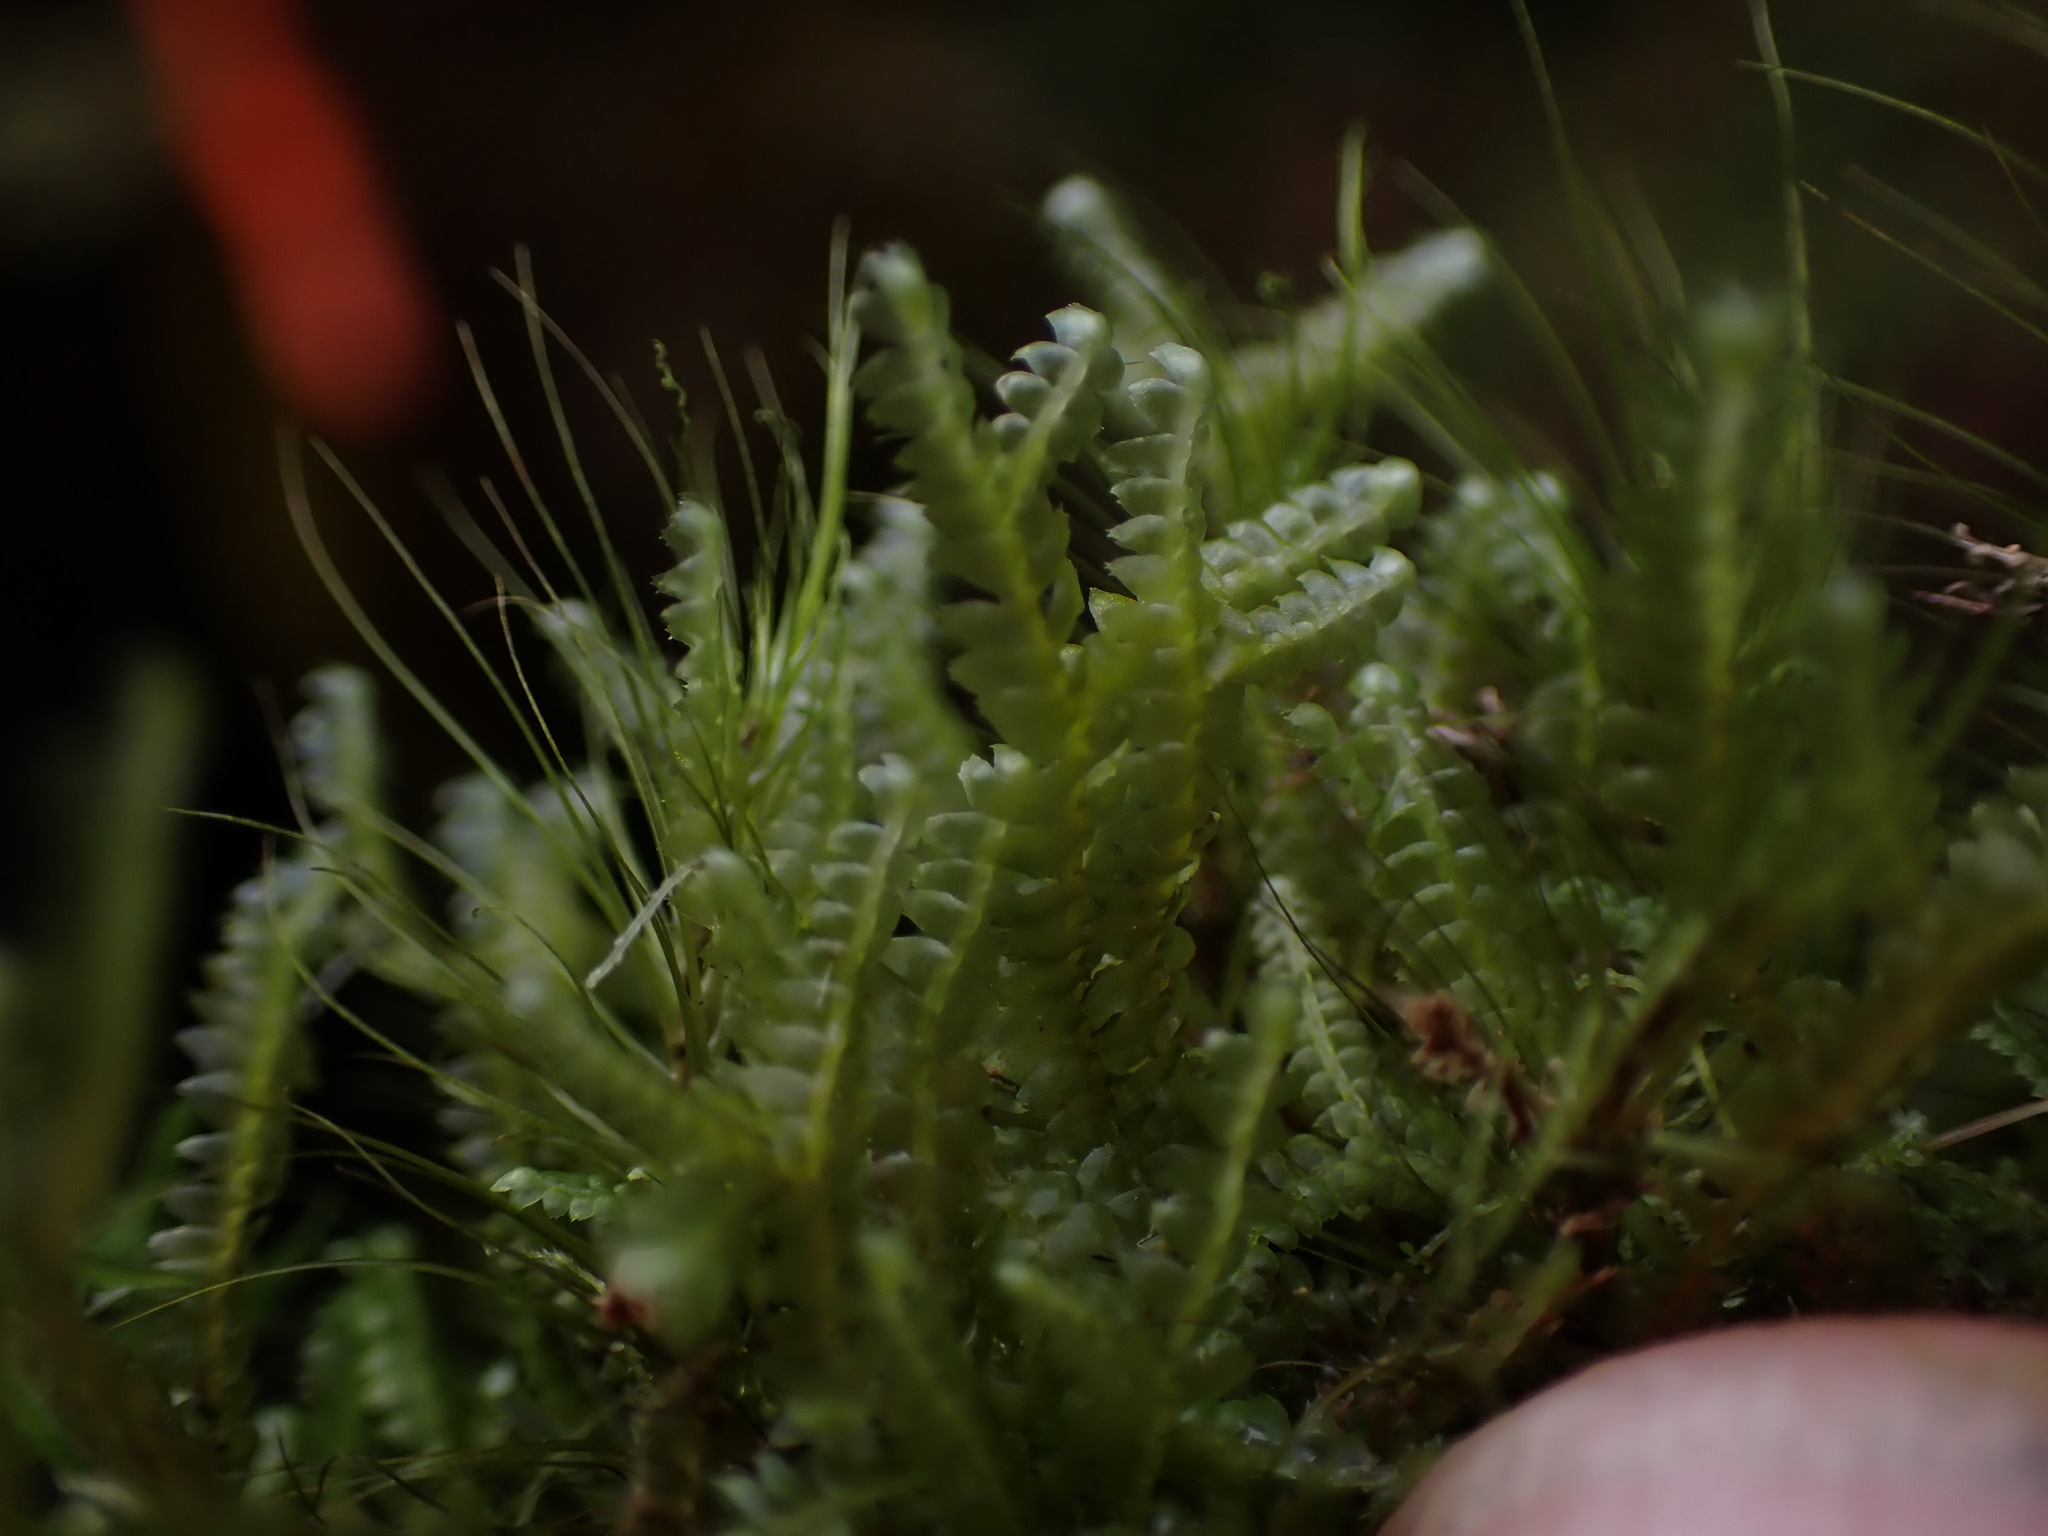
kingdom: Plantae
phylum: Marchantiophyta
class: Jungermanniopsida
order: Jungermanniales
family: Lepidoziaceae
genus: Bazzania
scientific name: Bazzania trilobata
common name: Three-lobed whipwort
